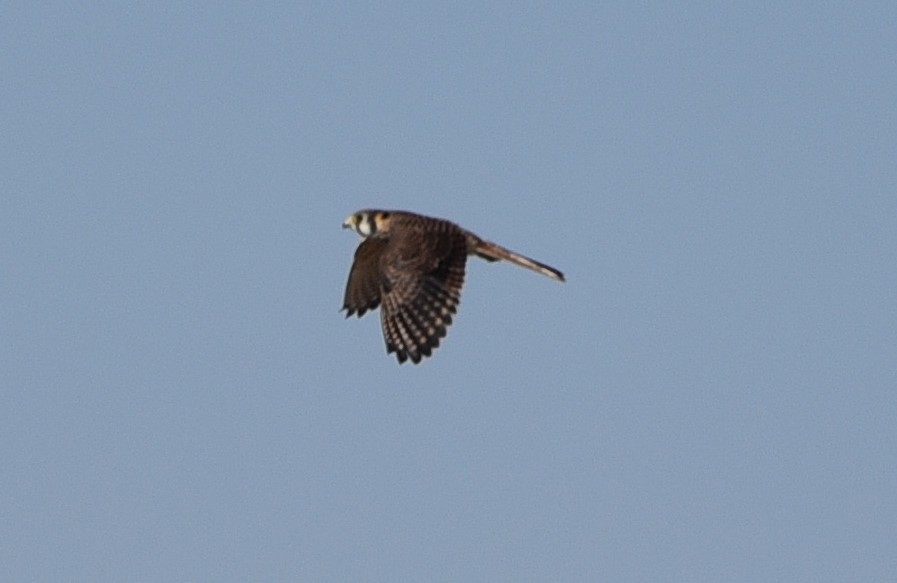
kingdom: Animalia
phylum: Chordata
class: Aves
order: Falconiformes
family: Falconidae
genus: Falco
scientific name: Falco sparverius
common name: American kestrel
